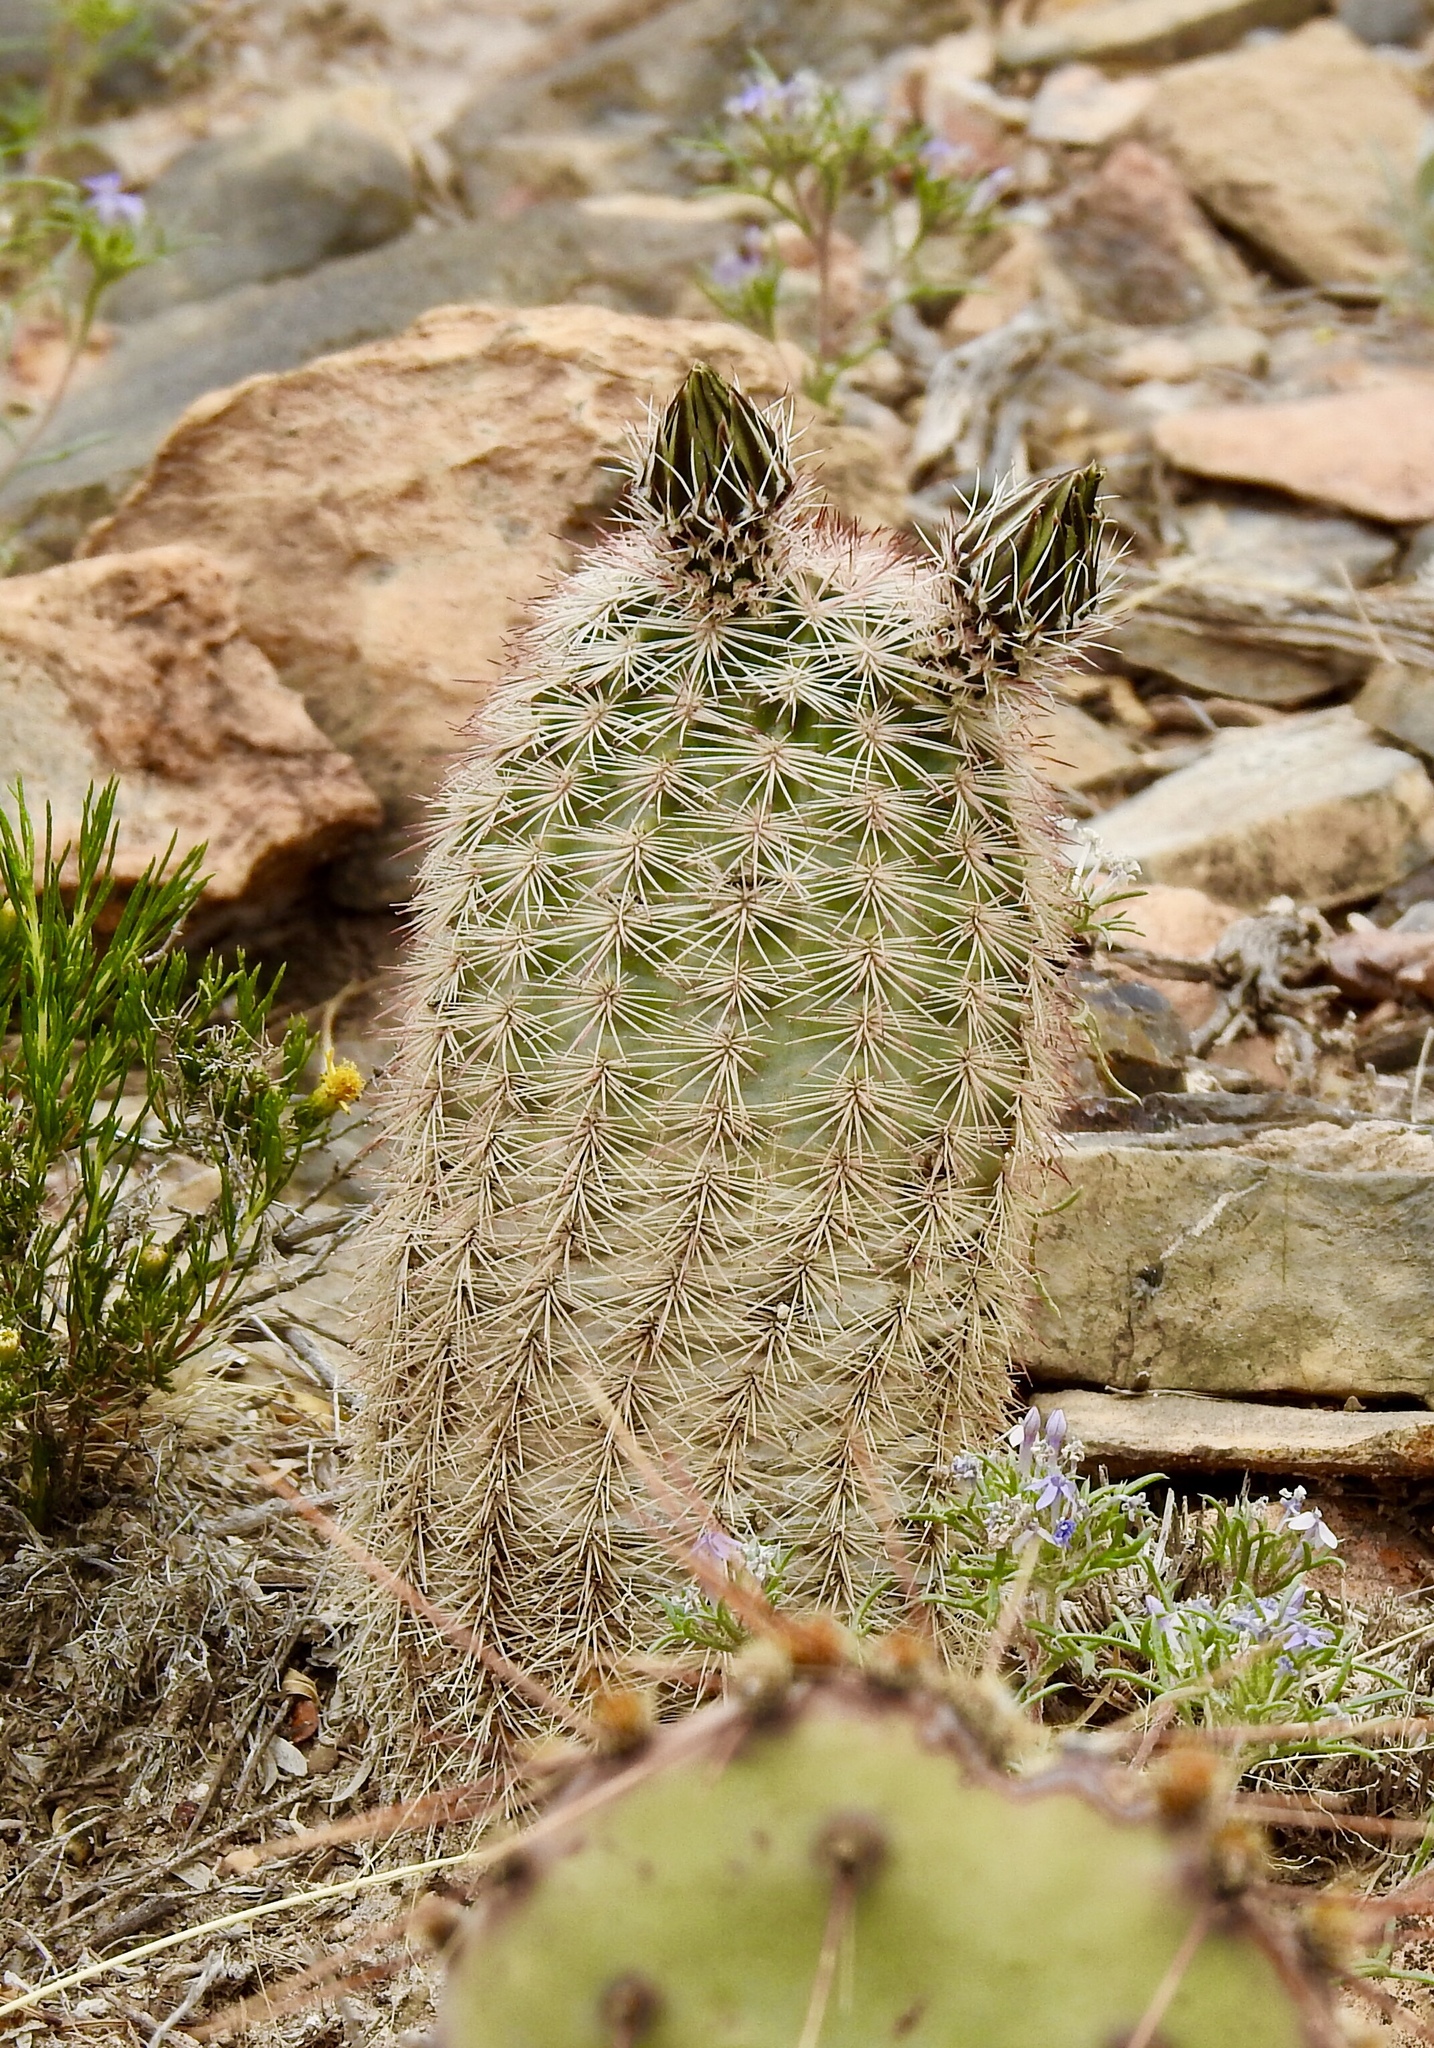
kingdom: Plantae
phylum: Tracheophyta
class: Magnoliopsida
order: Caryophyllales
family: Cactaceae
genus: Echinocereus
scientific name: Echinocereus dasyacanthus
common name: Spiny hedgehog cactus
